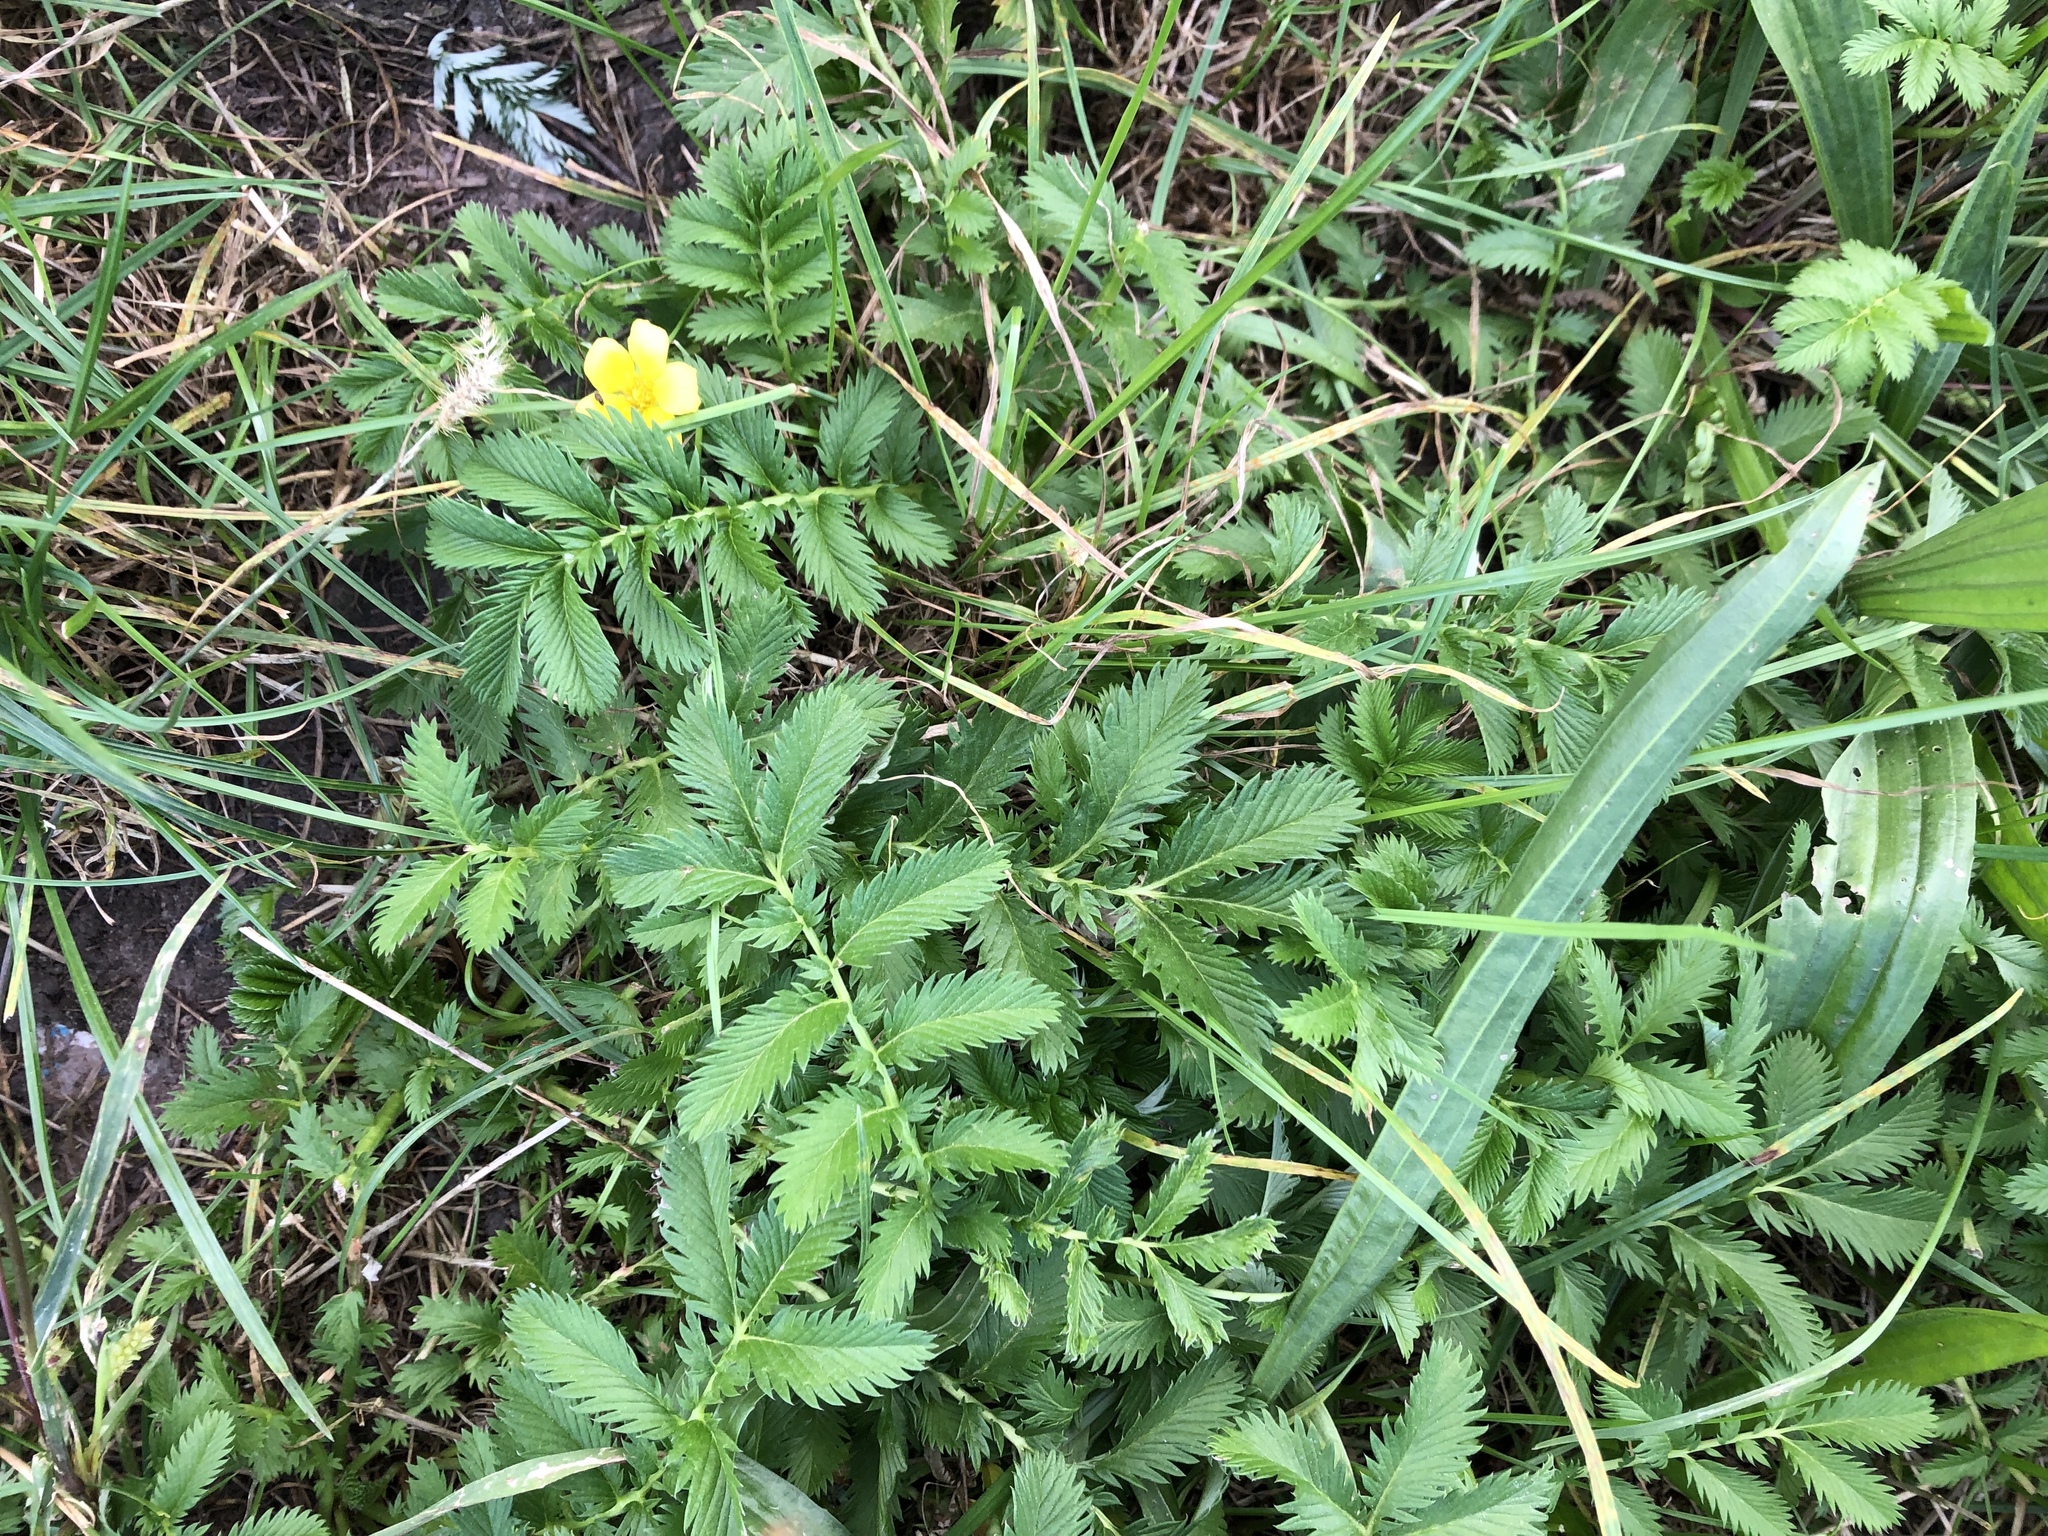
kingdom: Plantae
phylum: Tracheophyta
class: Magnoliopsida
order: Rosales
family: Rosaceae
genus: Argentina
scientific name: Argentina anserina
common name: Common silverweed
